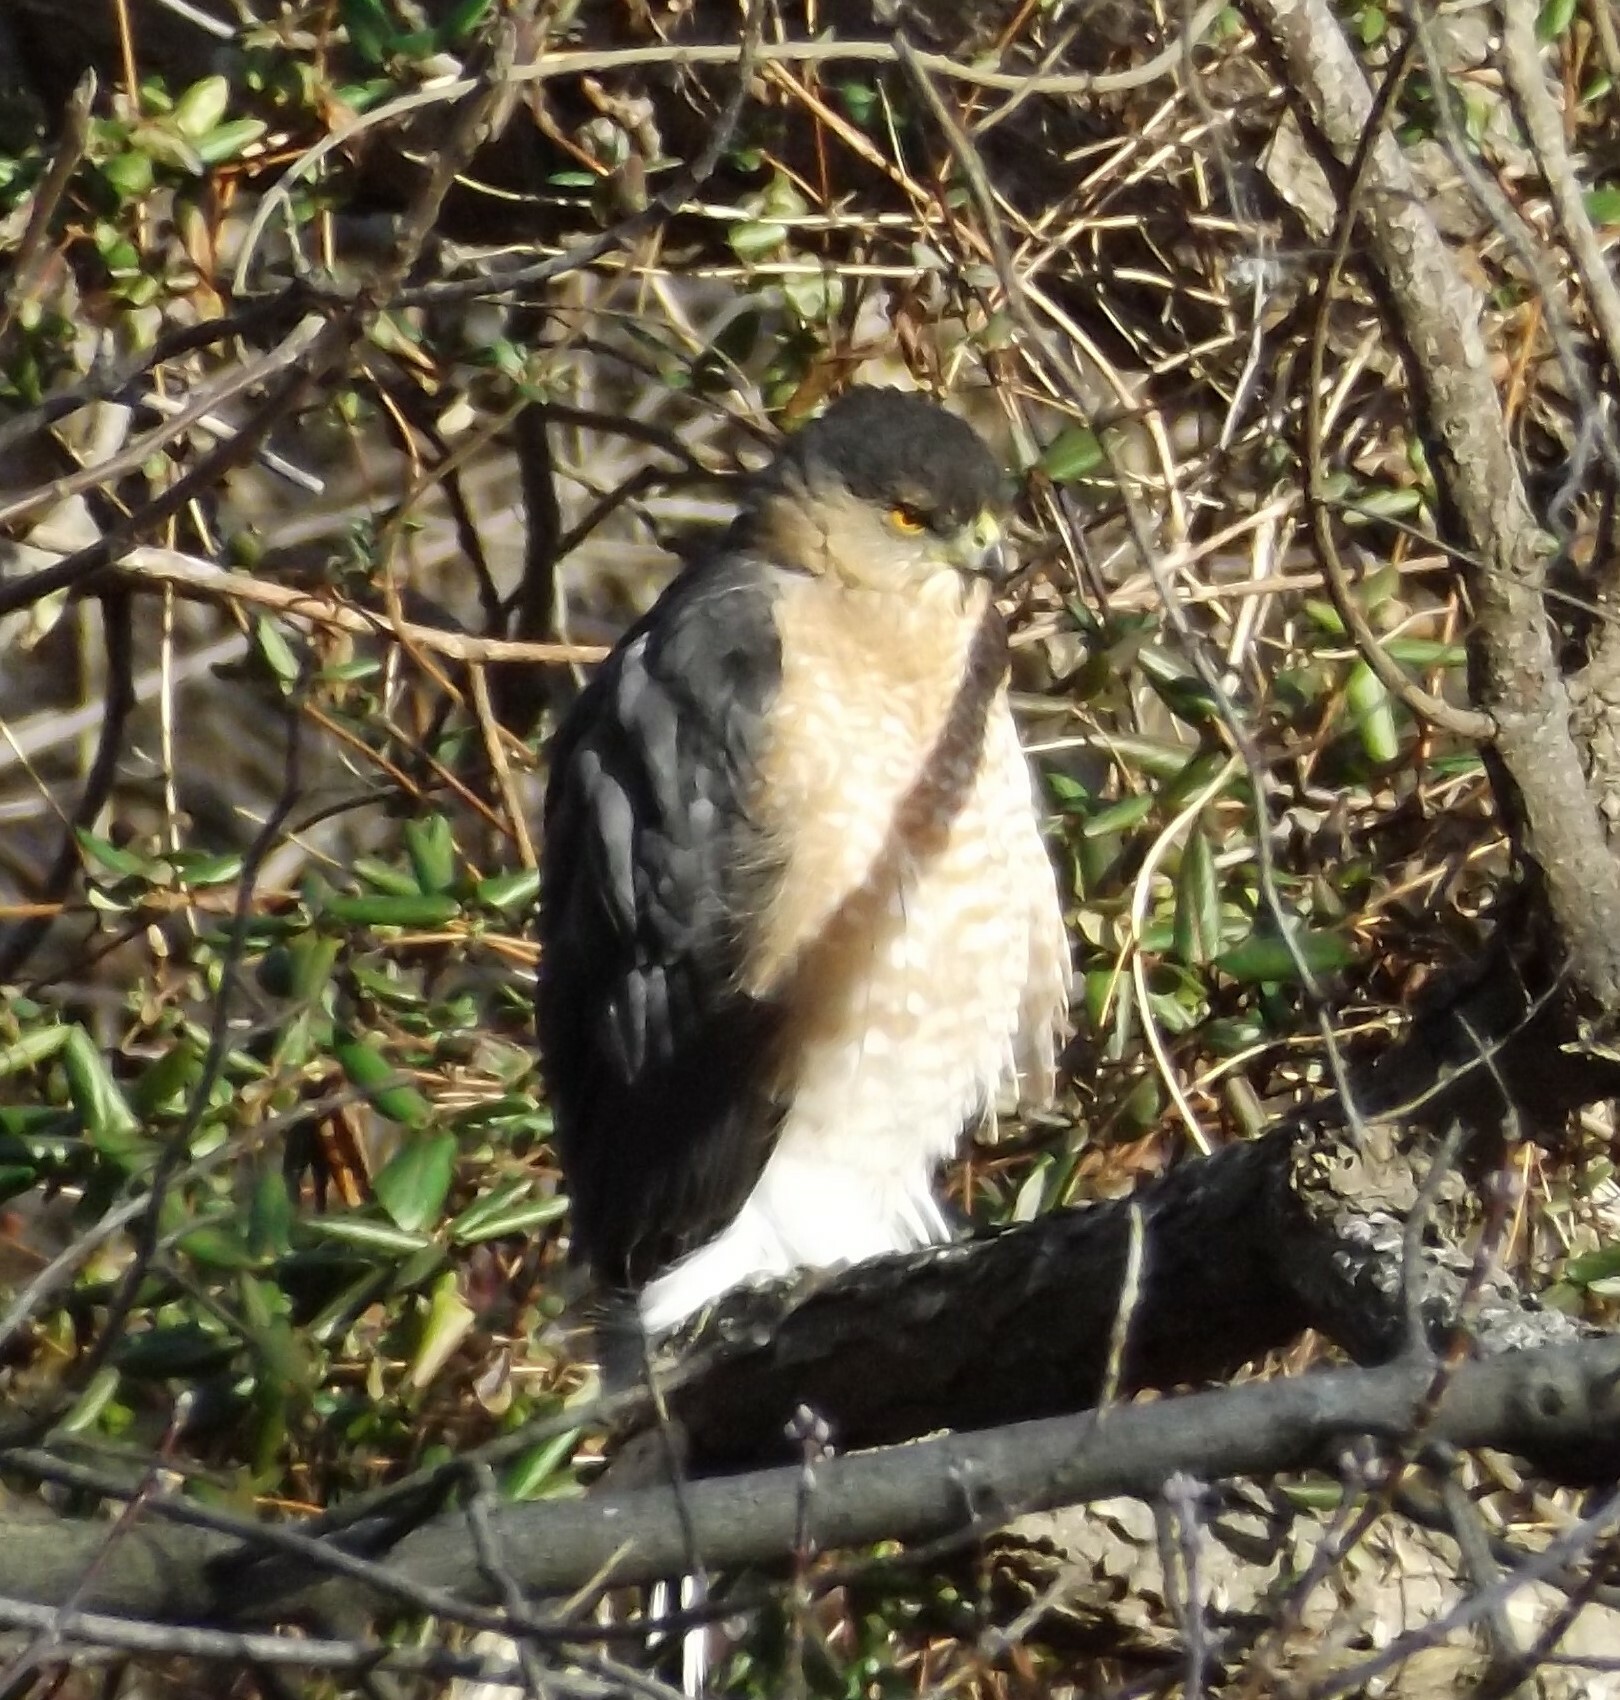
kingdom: Animalia
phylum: Chordata
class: Aves
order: Accipitriformes
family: Accipitridae
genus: Accipiter
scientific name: Accipiter cooperii
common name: Cooper's hawk
